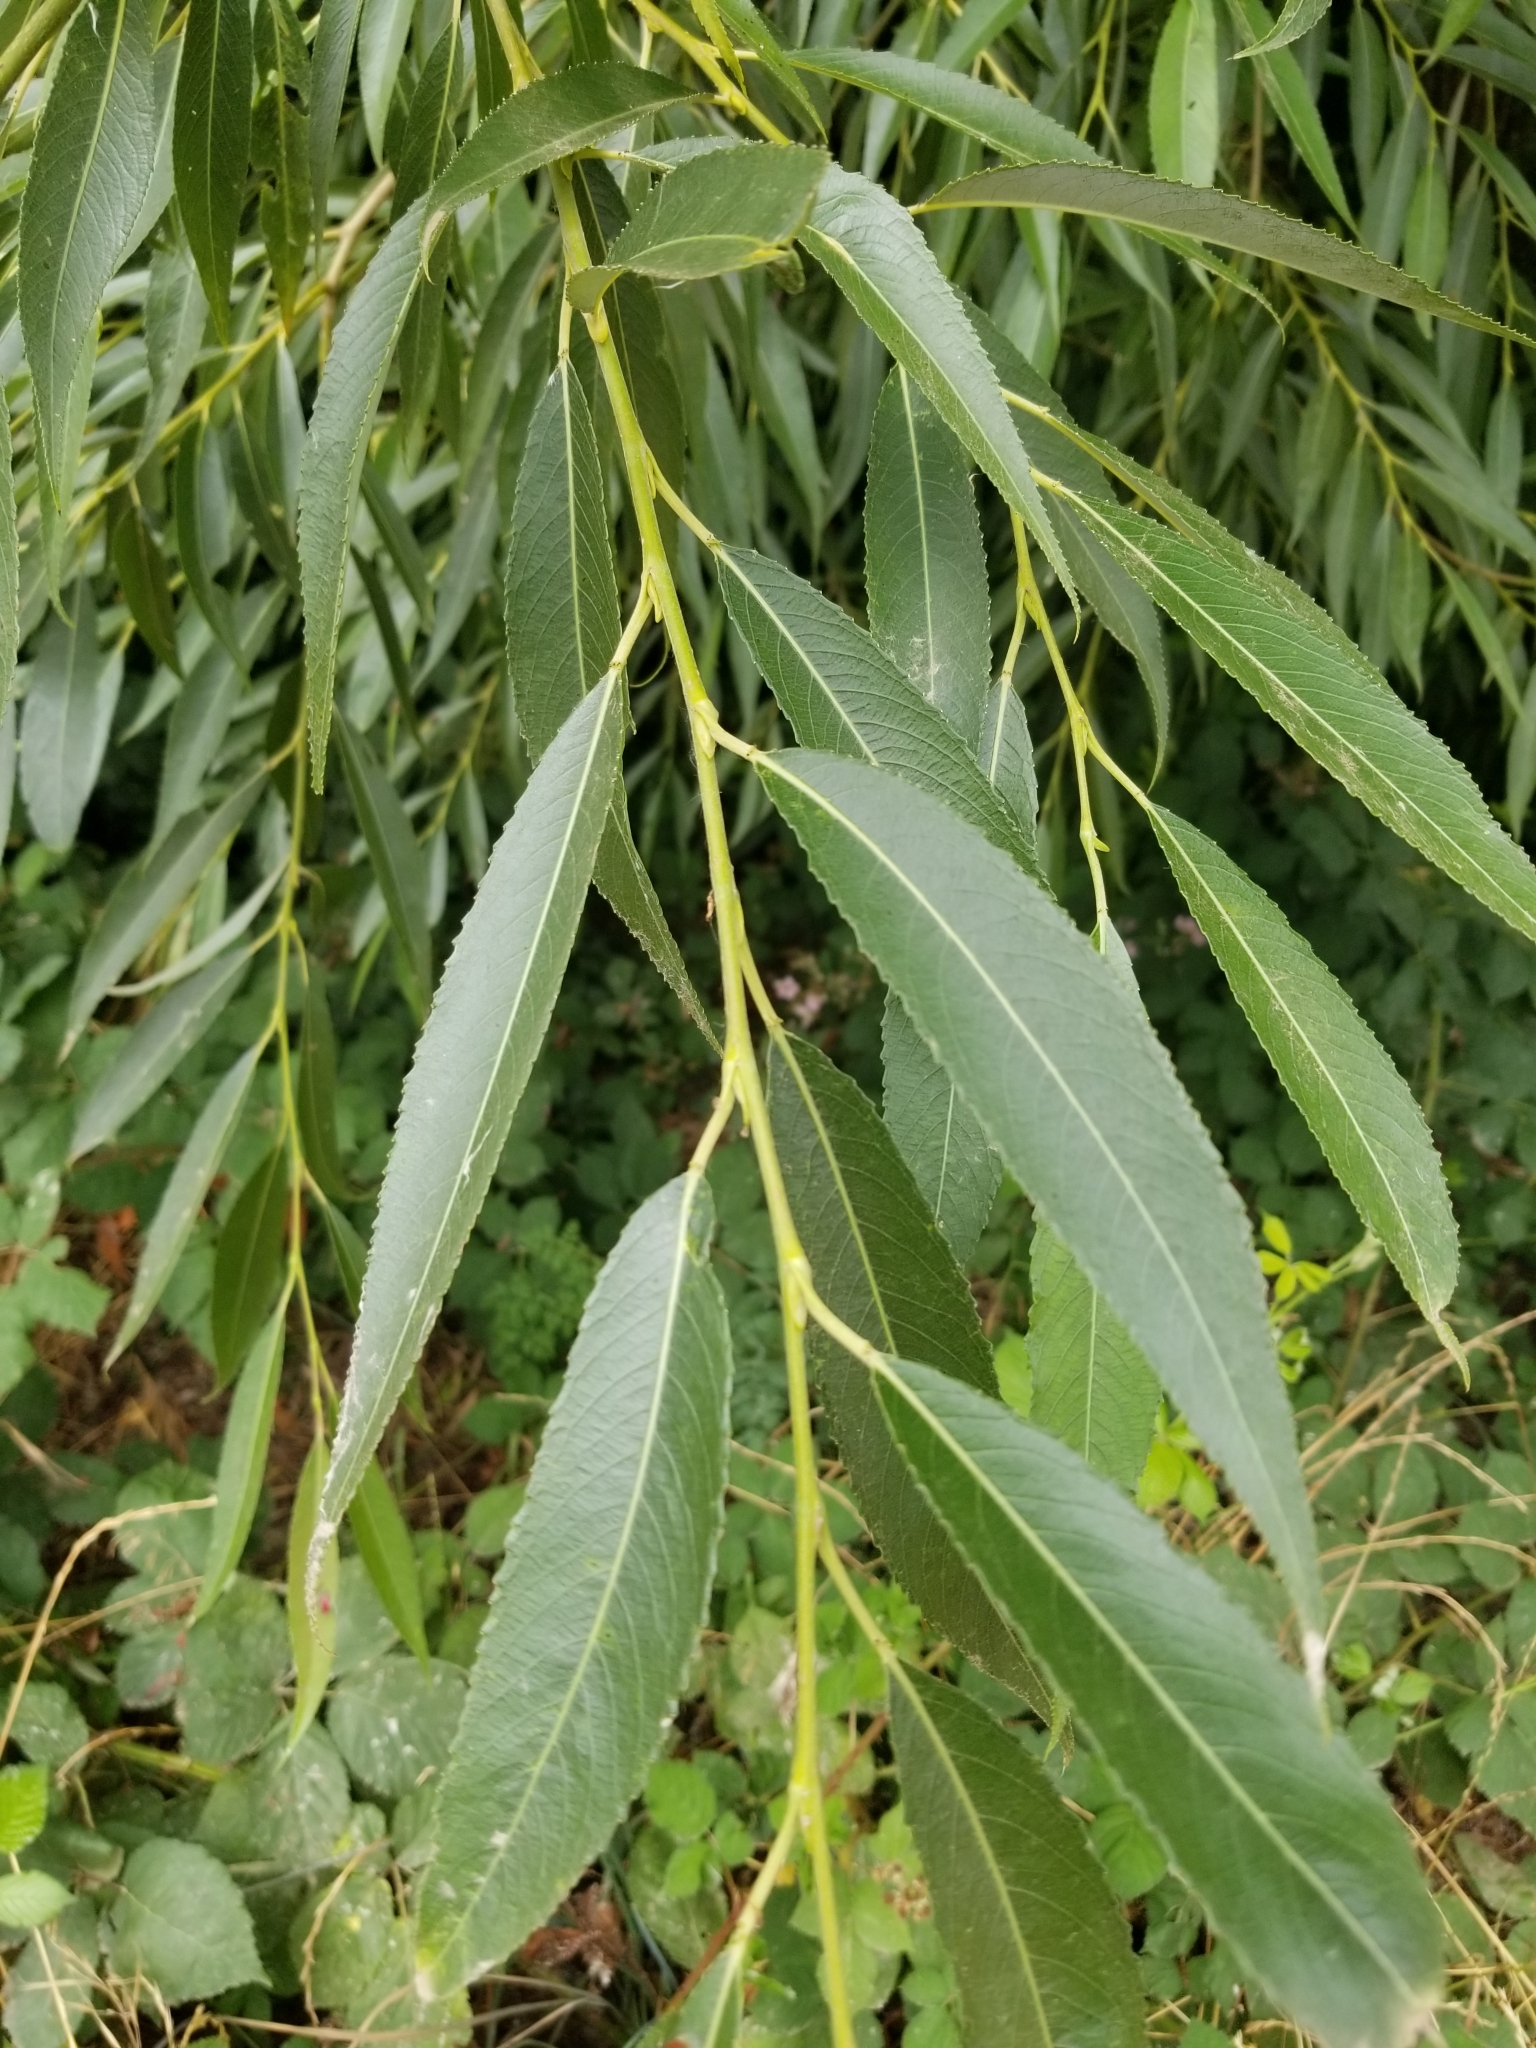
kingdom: Plantae
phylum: Tracheophyta
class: Magnoliopsida
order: Malpighiales
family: Salicaceae
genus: Salix
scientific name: Salix lucida
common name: Shining willow
